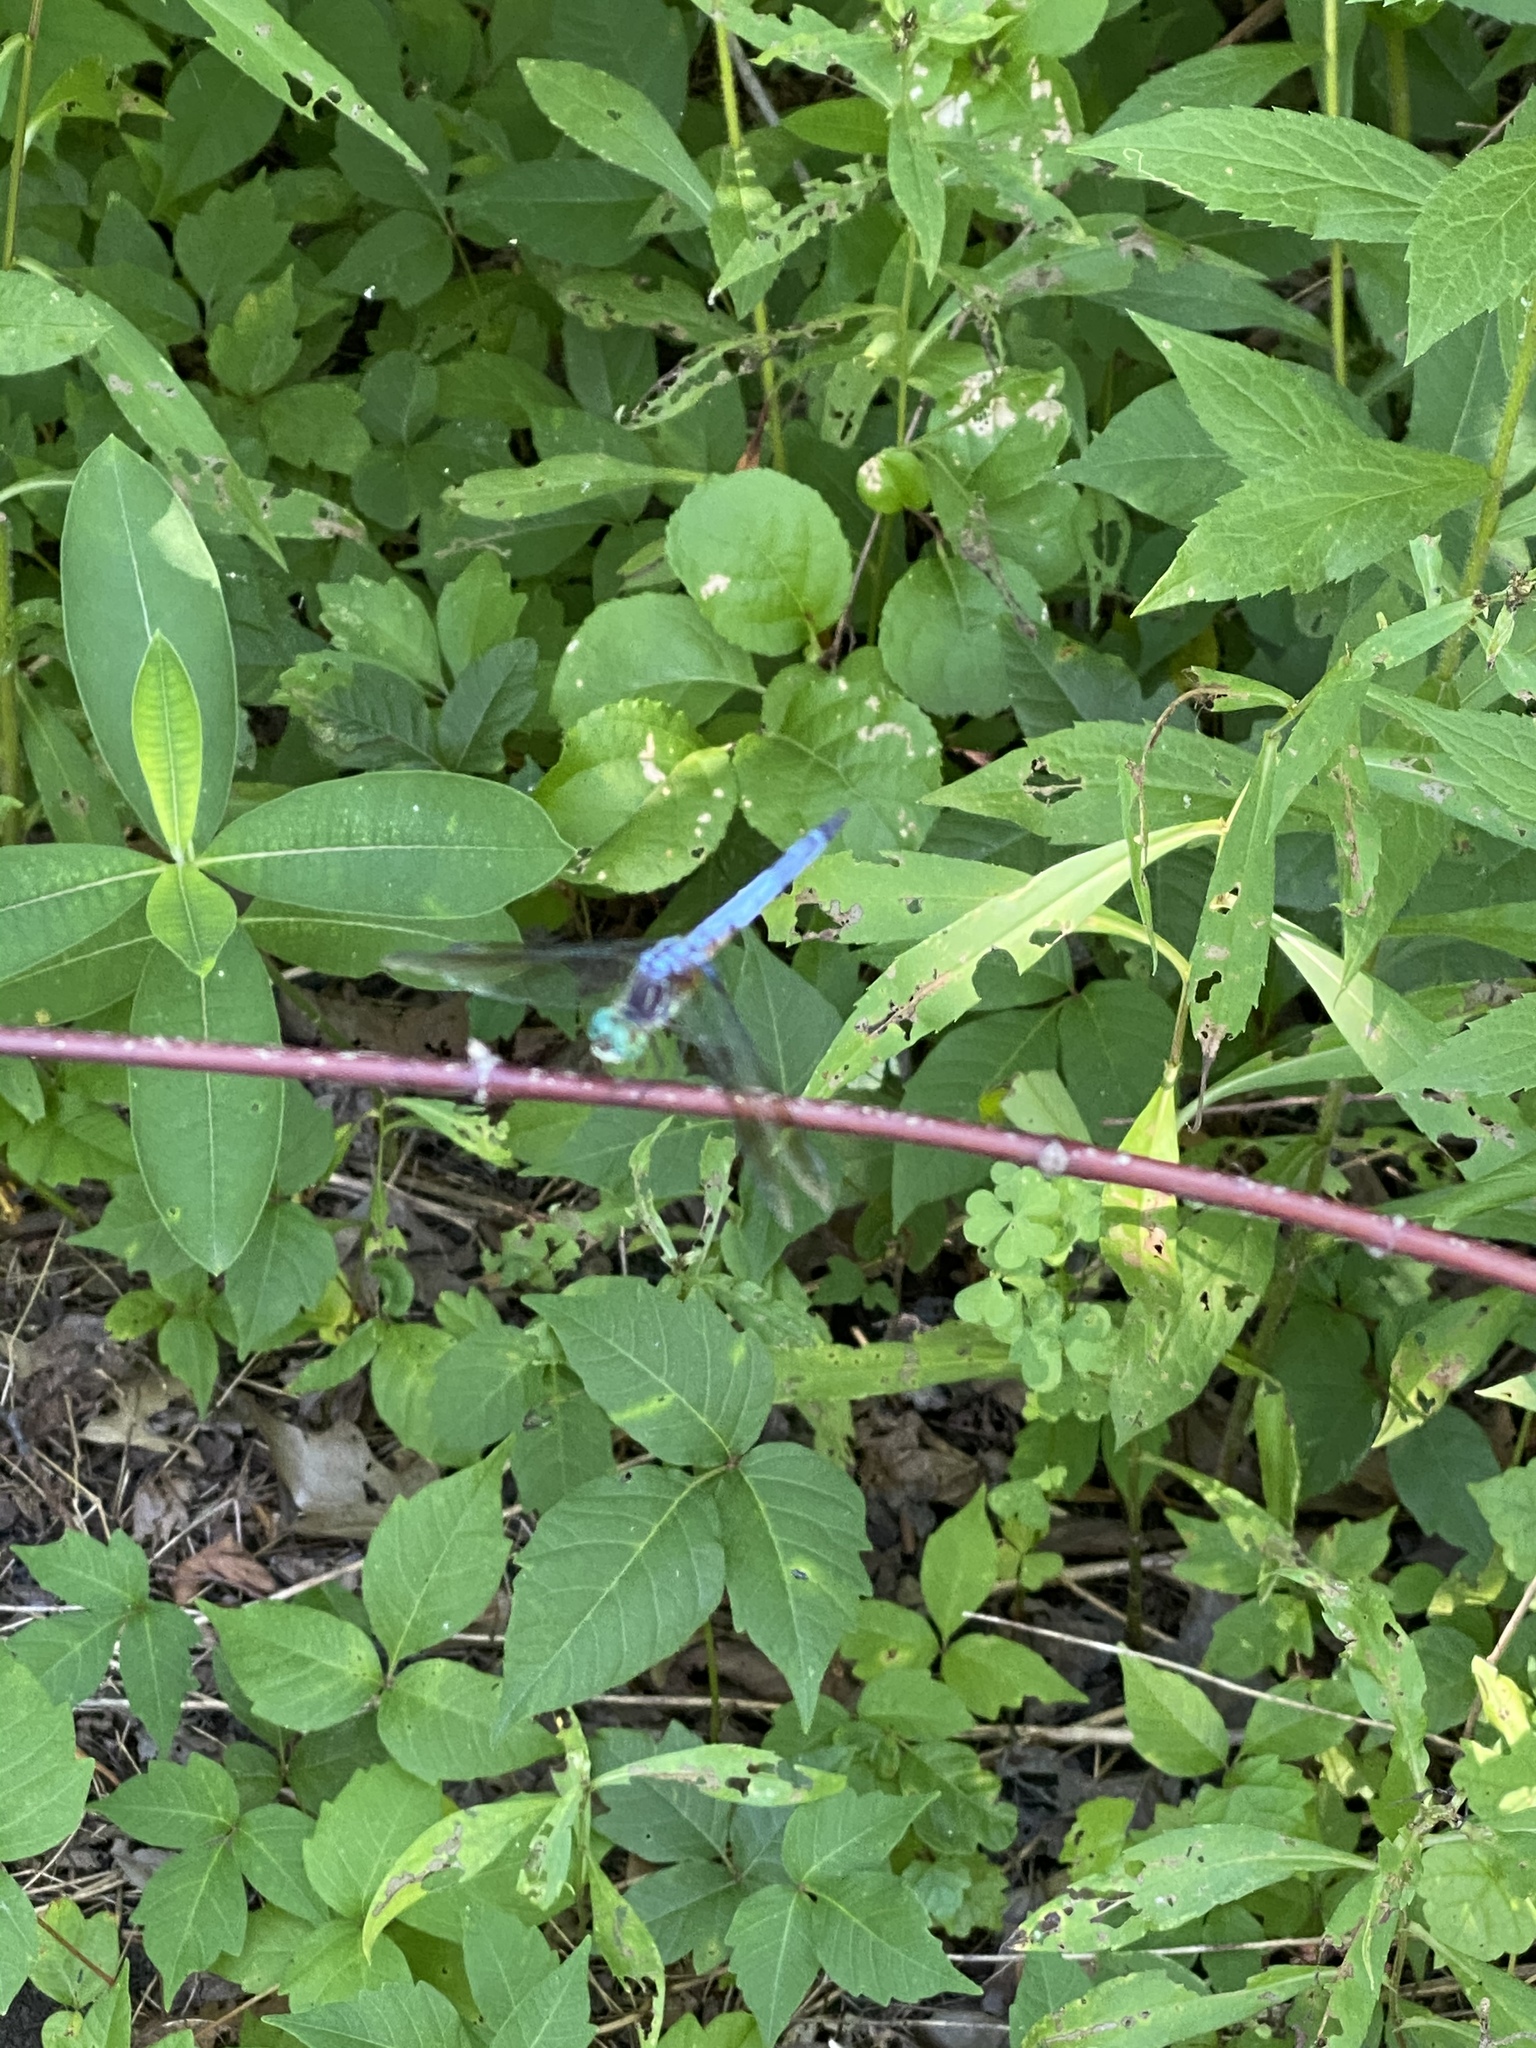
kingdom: Animalia
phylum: Arthropoda
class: Insecta
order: Odonata
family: Libellulidae
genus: Pachydiplax
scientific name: Pachydiplax longipennis
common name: Blue dasher
